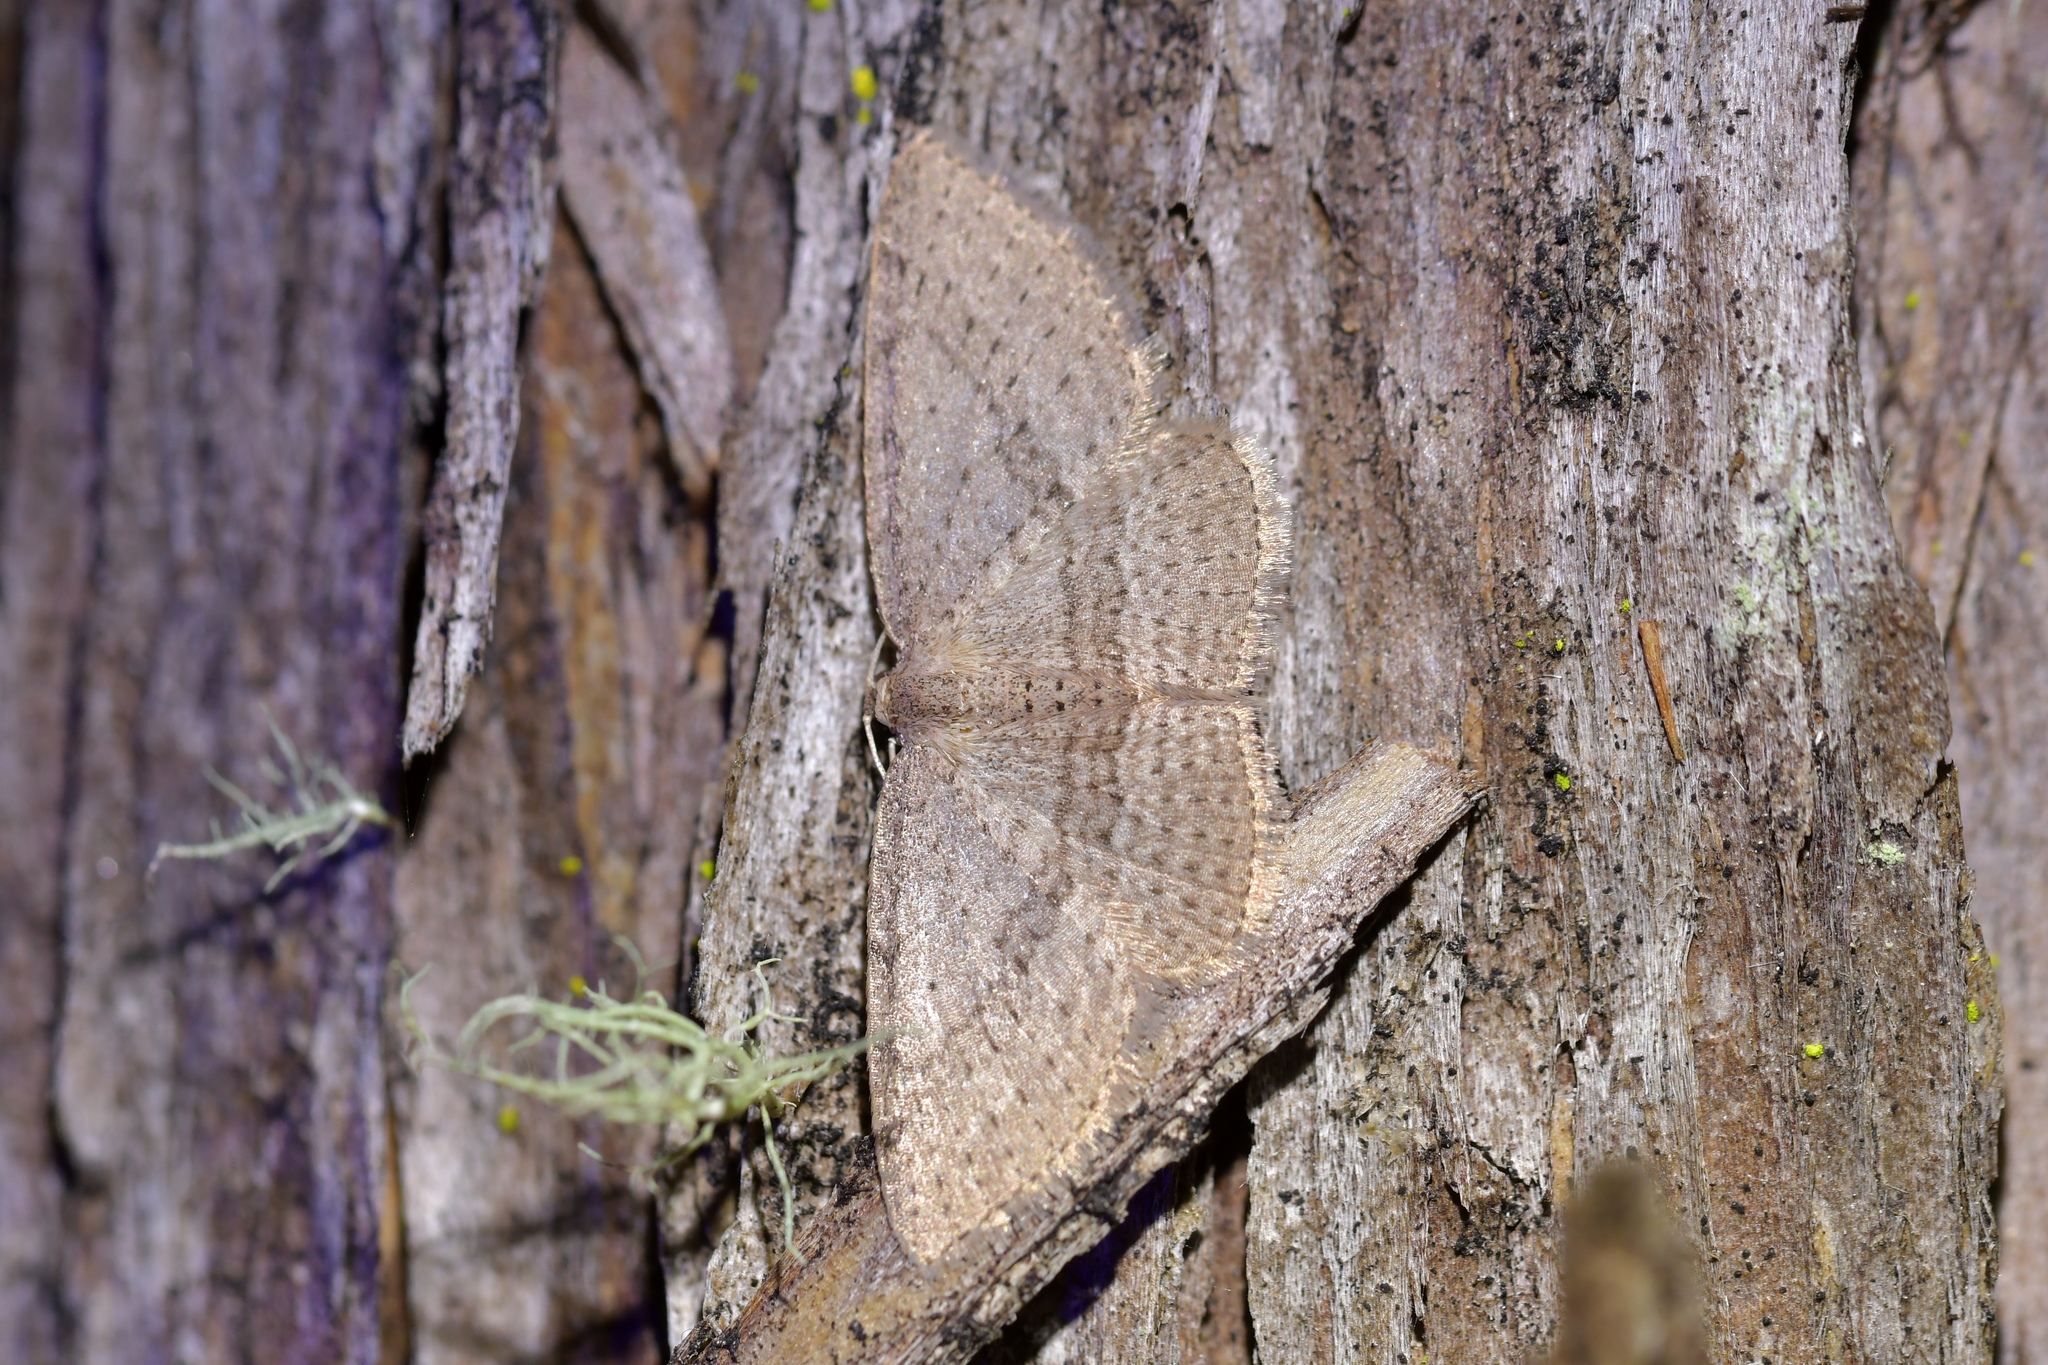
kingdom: Animalia
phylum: Arthropoda
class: Insecta
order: Lepidoptera
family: Geometridae
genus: Poecilasthena
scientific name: Poecilasthena schistaria
